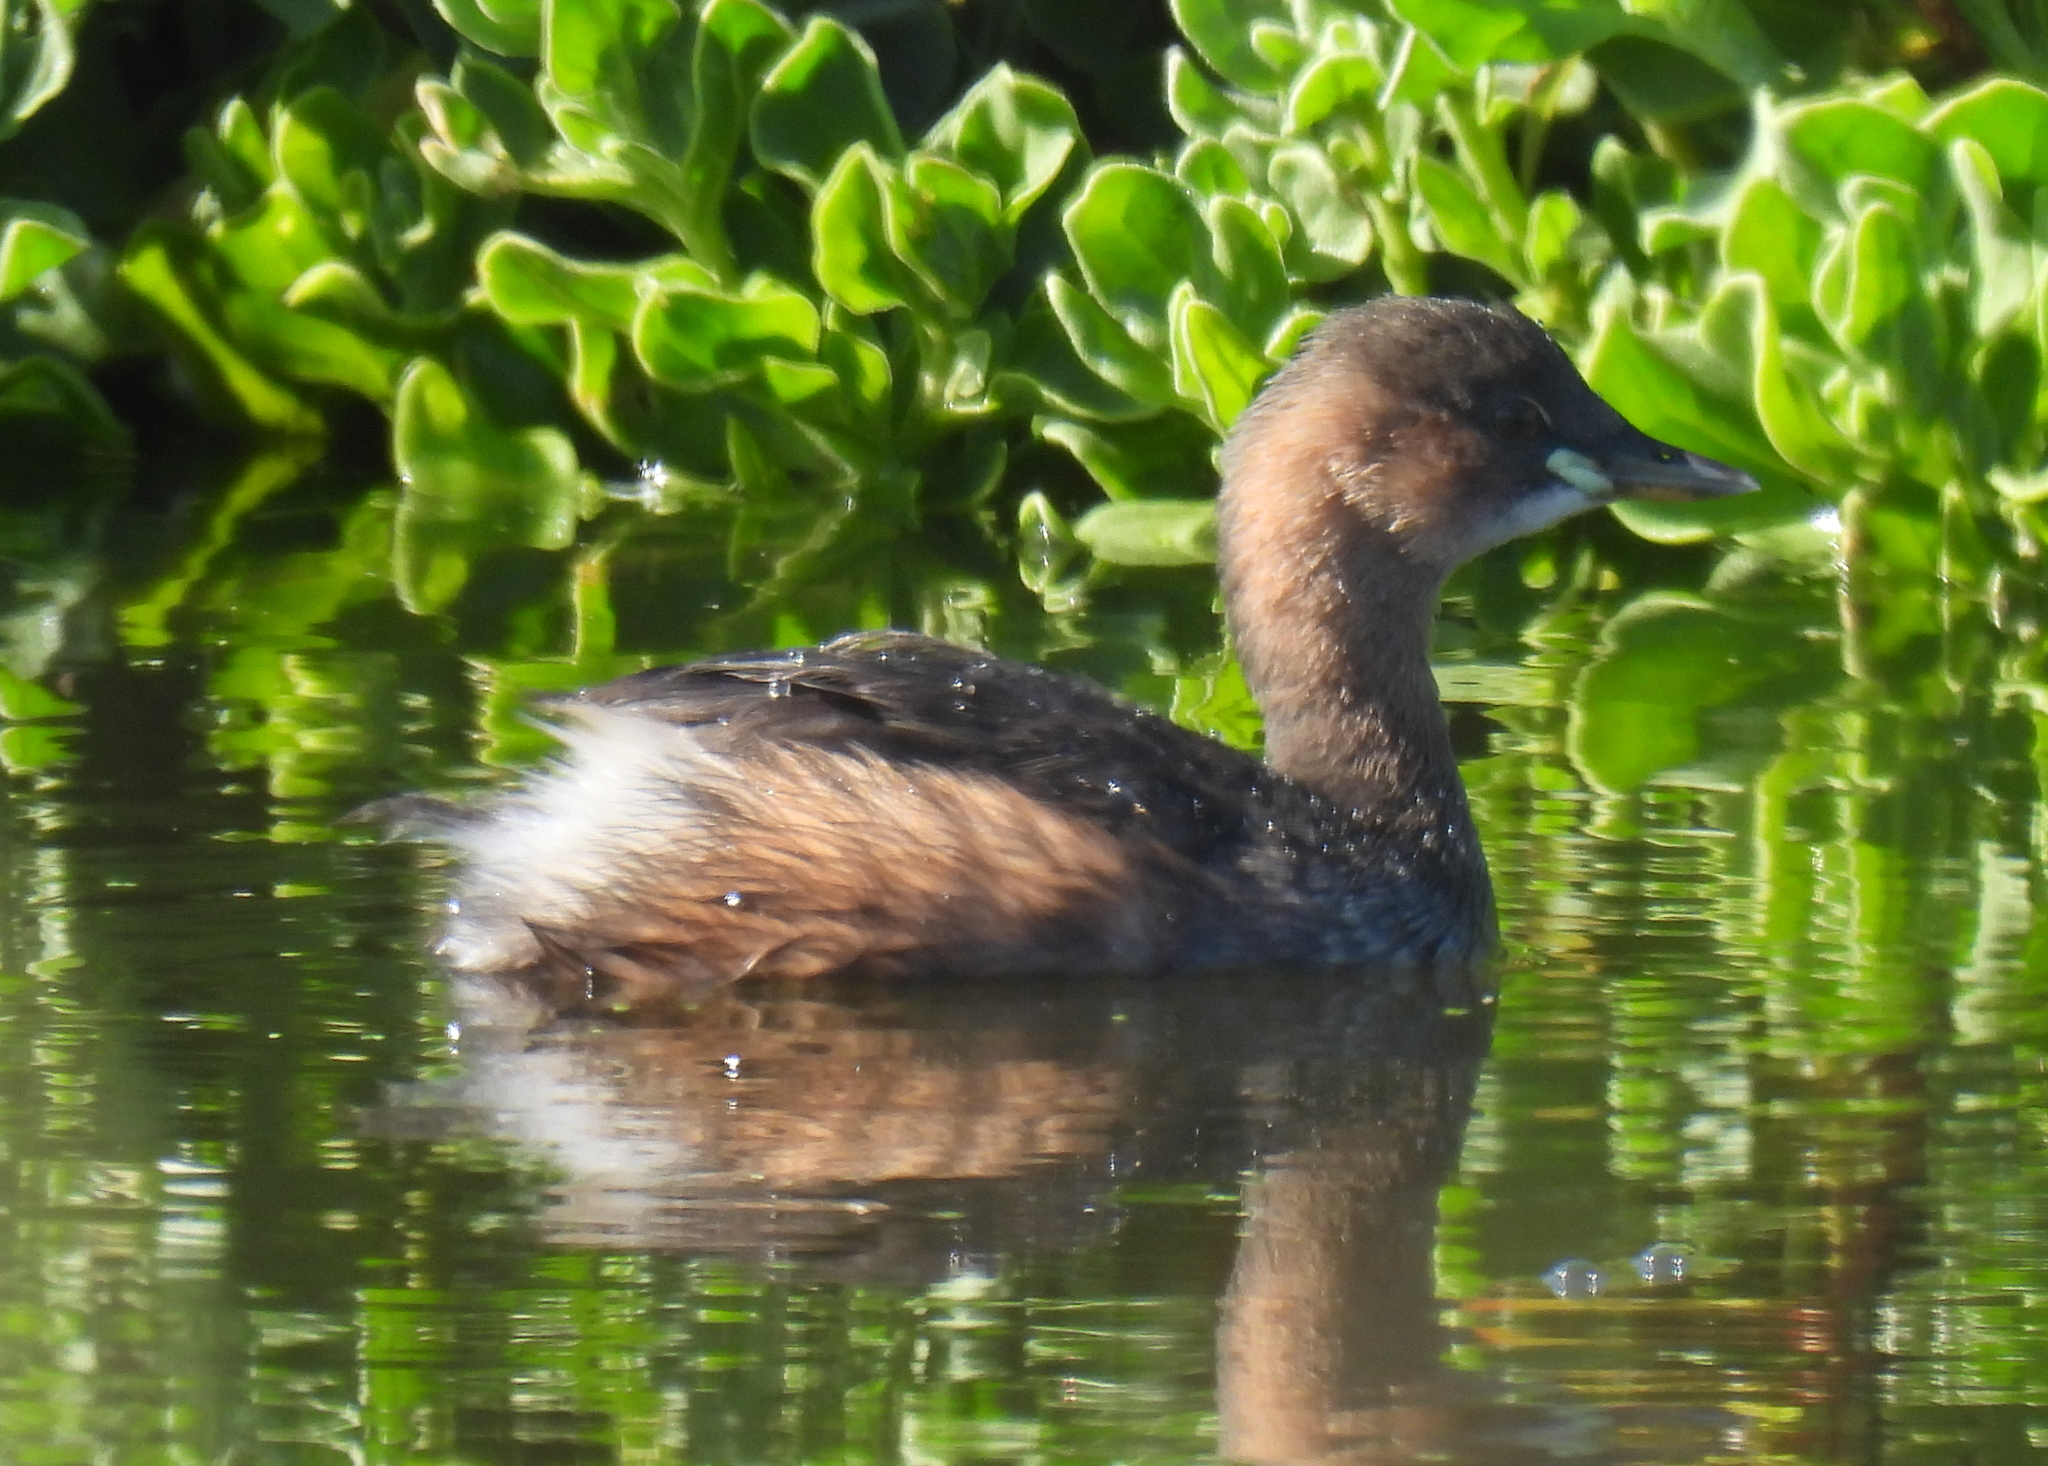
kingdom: Animalia
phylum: Chordata
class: Aves
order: Podicipediformes
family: Podicipedidae
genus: Tachybaptus
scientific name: Tachybaptus ruficollis
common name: Little grebe
